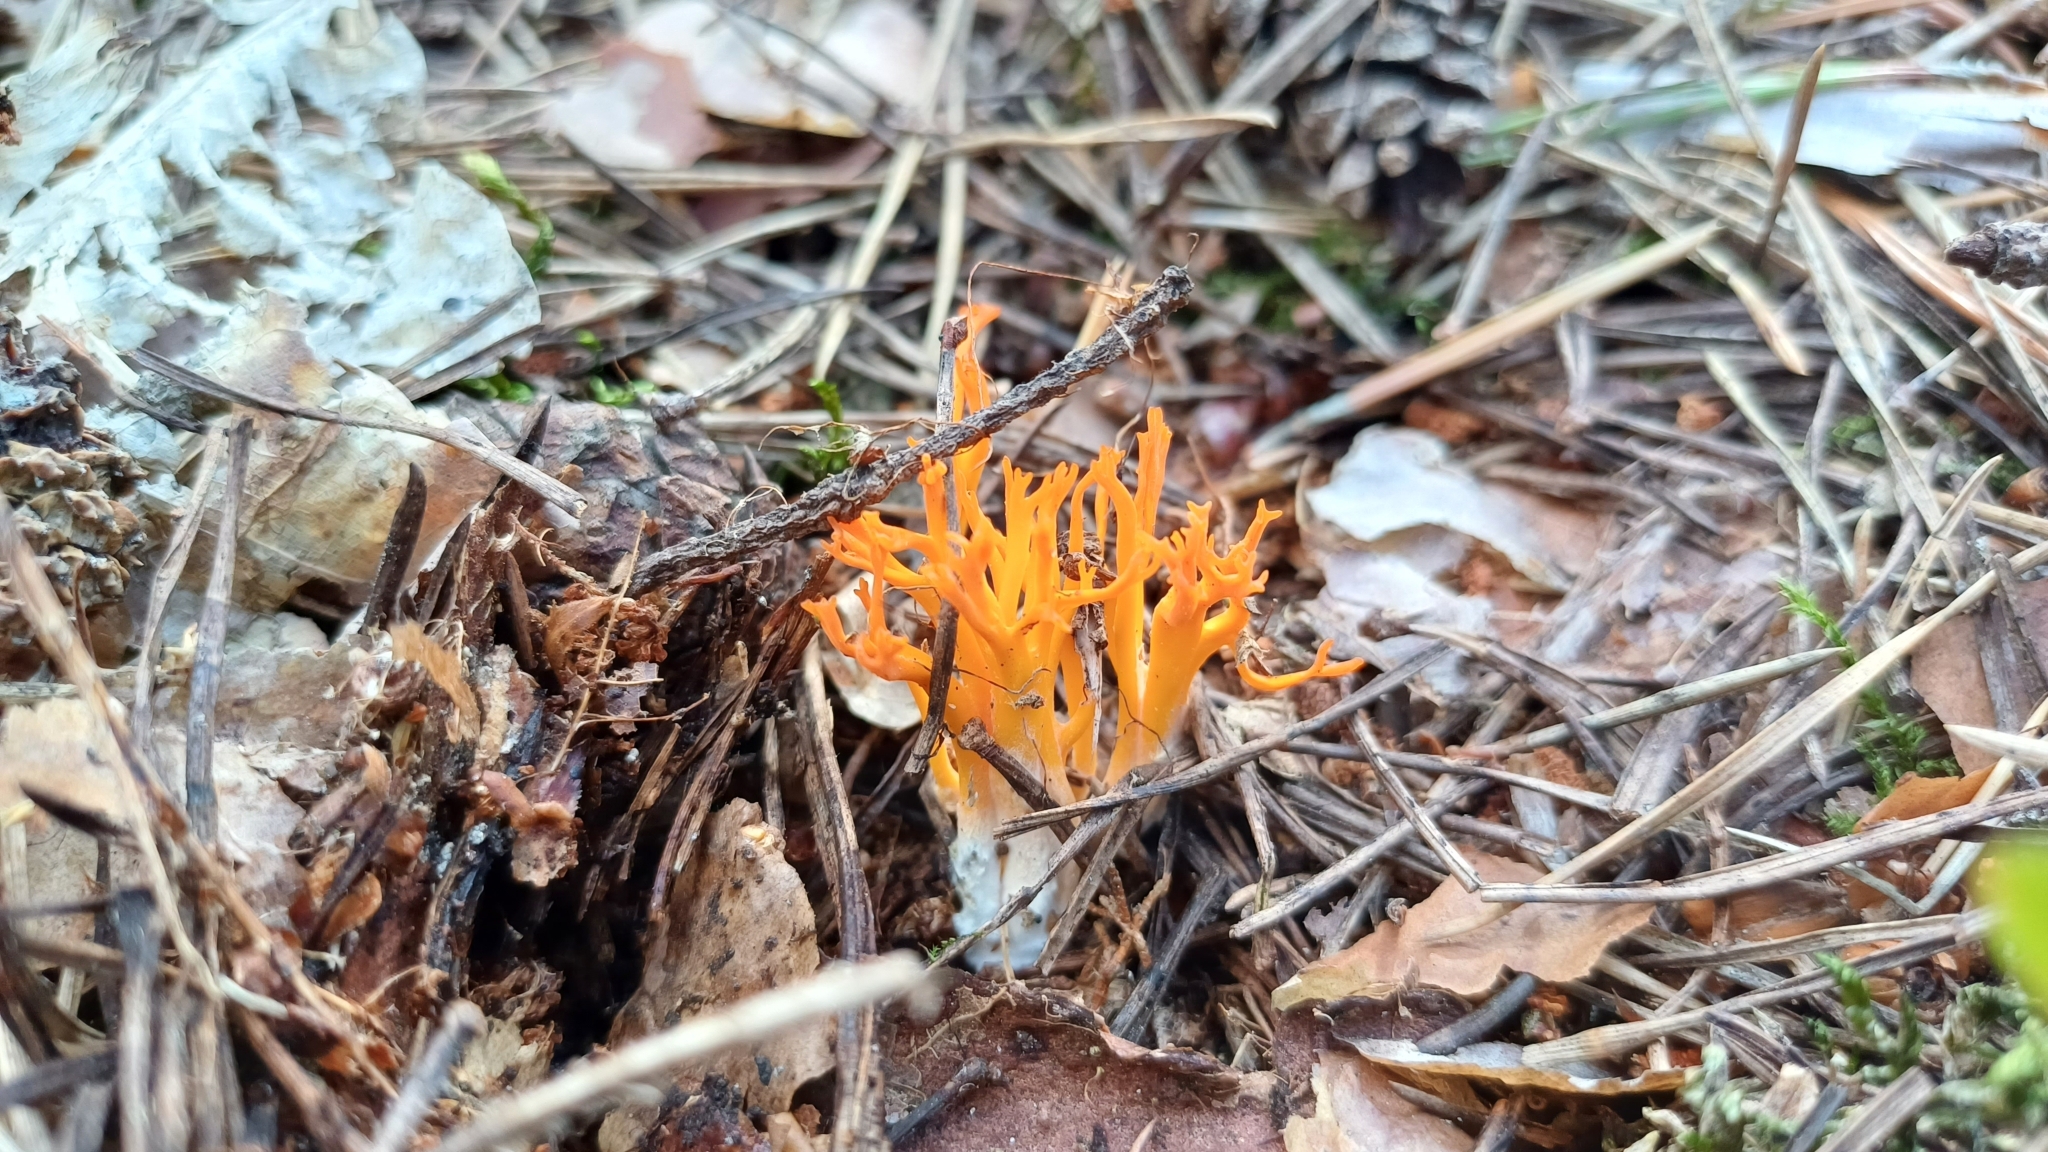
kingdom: Fungi
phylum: Basidiomycota
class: Dacrymycetes
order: Dacrymycetales
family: Dacrymycetaceae
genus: Calocera
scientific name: Calocera viscosa
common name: Yellow stagshorn
